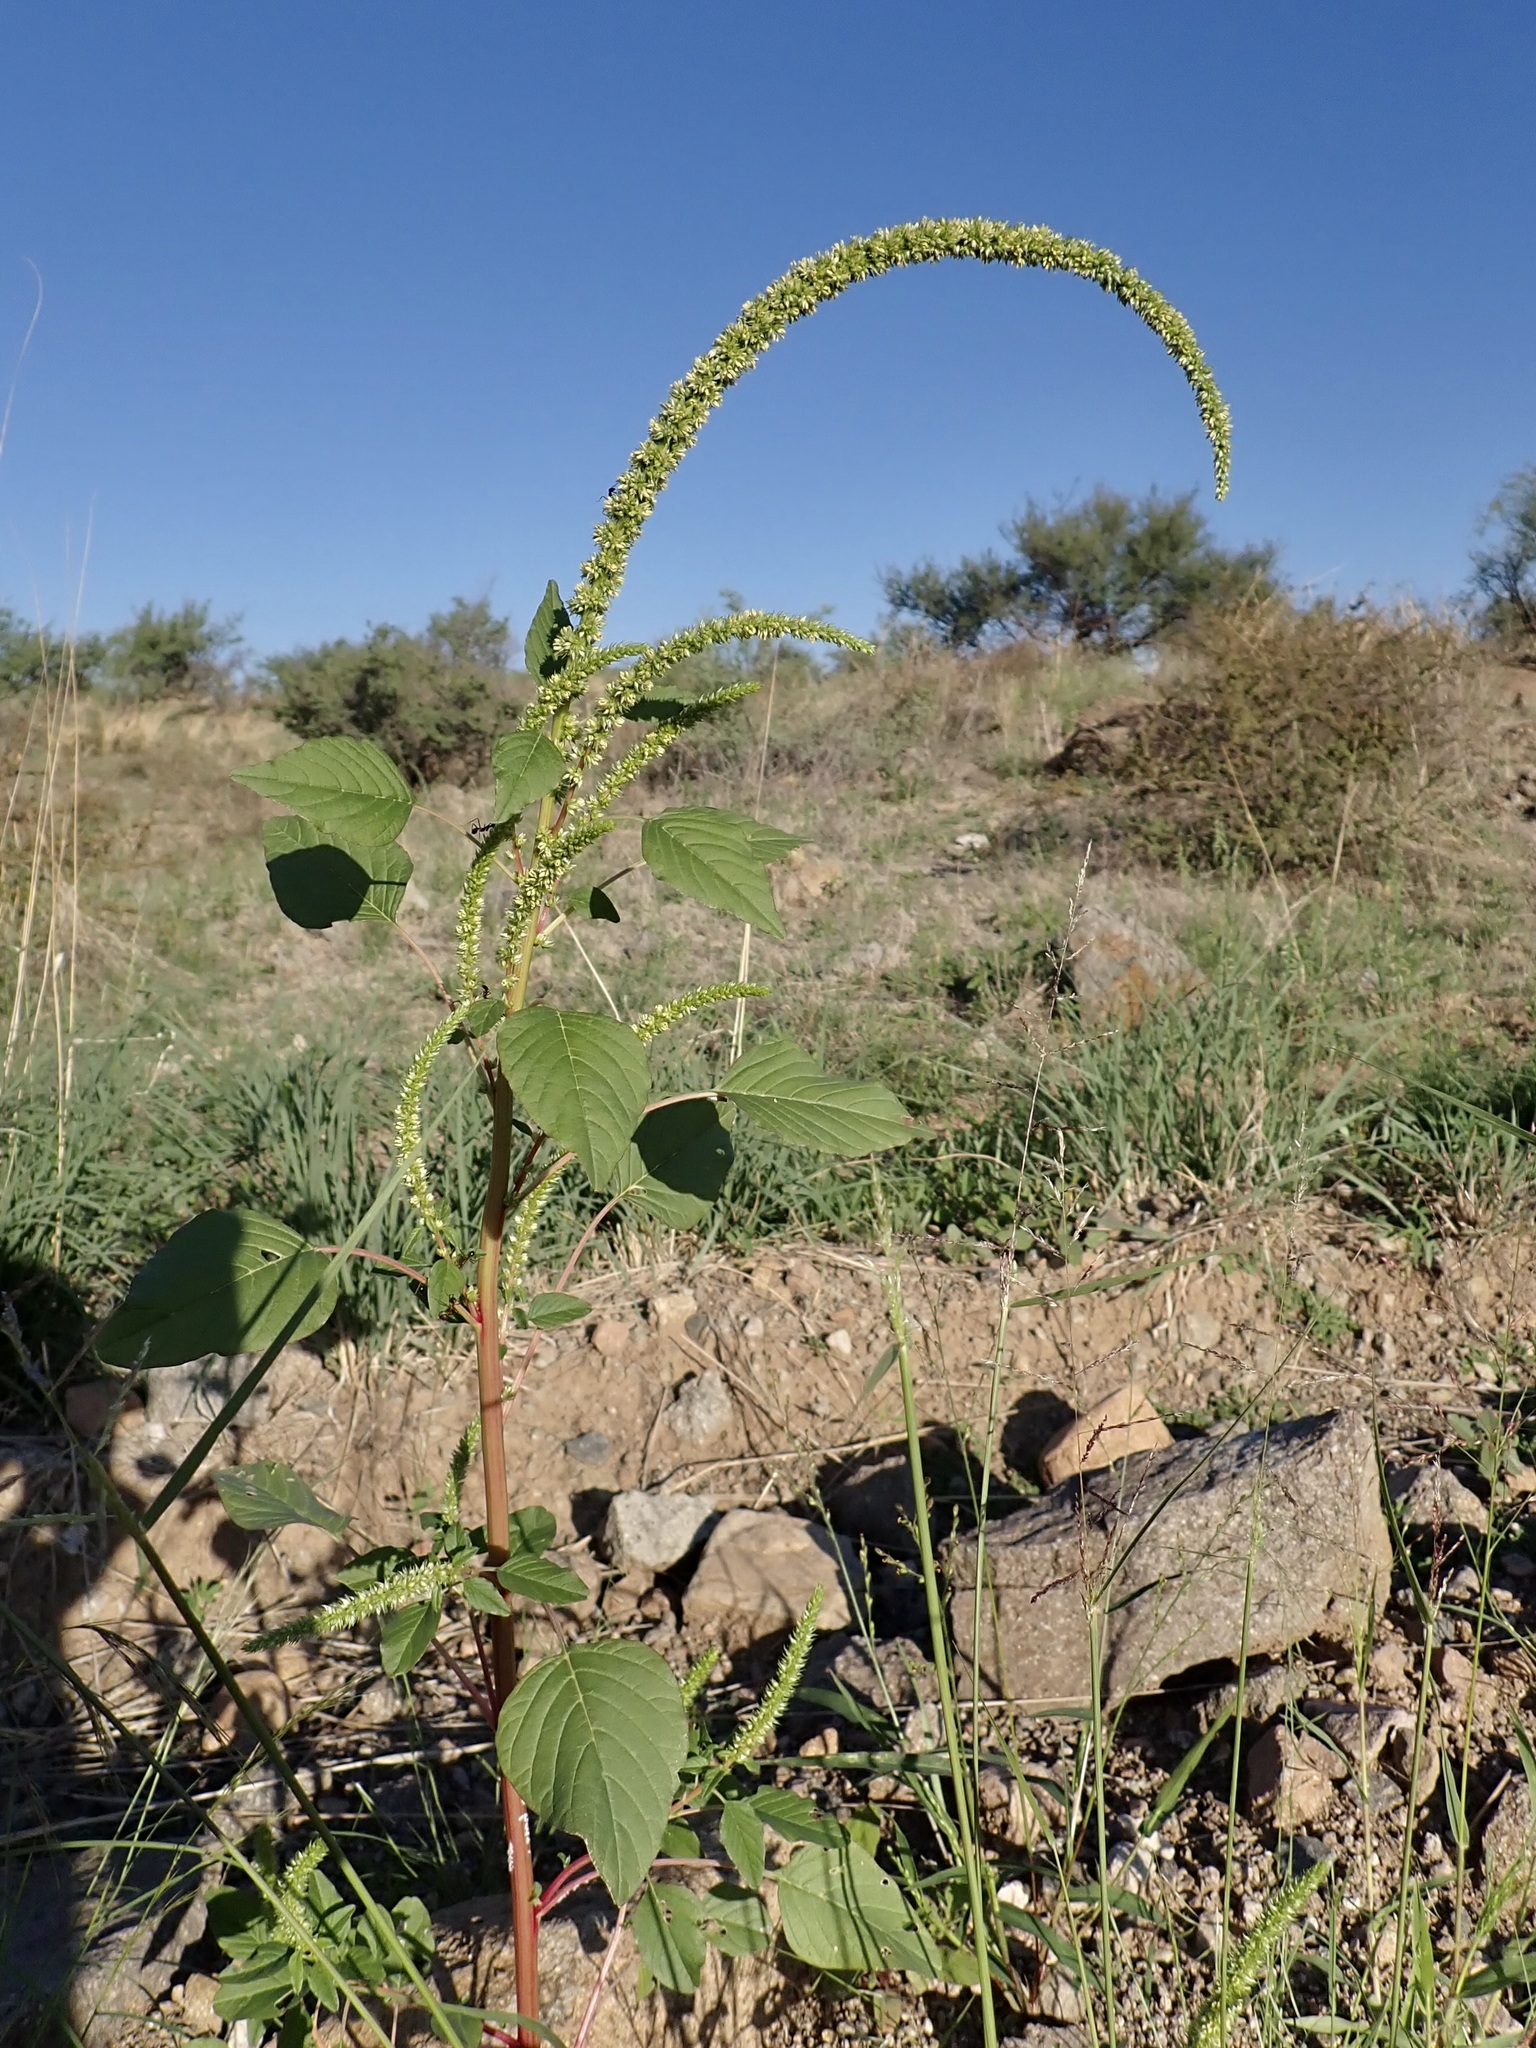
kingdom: Plantae
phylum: Tracheophyta
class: Magnoliopsida
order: Caryophyllales
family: Amaranthaceae
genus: Amaranthus
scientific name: Amaranthus palmeri
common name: Dioecious amaranth
